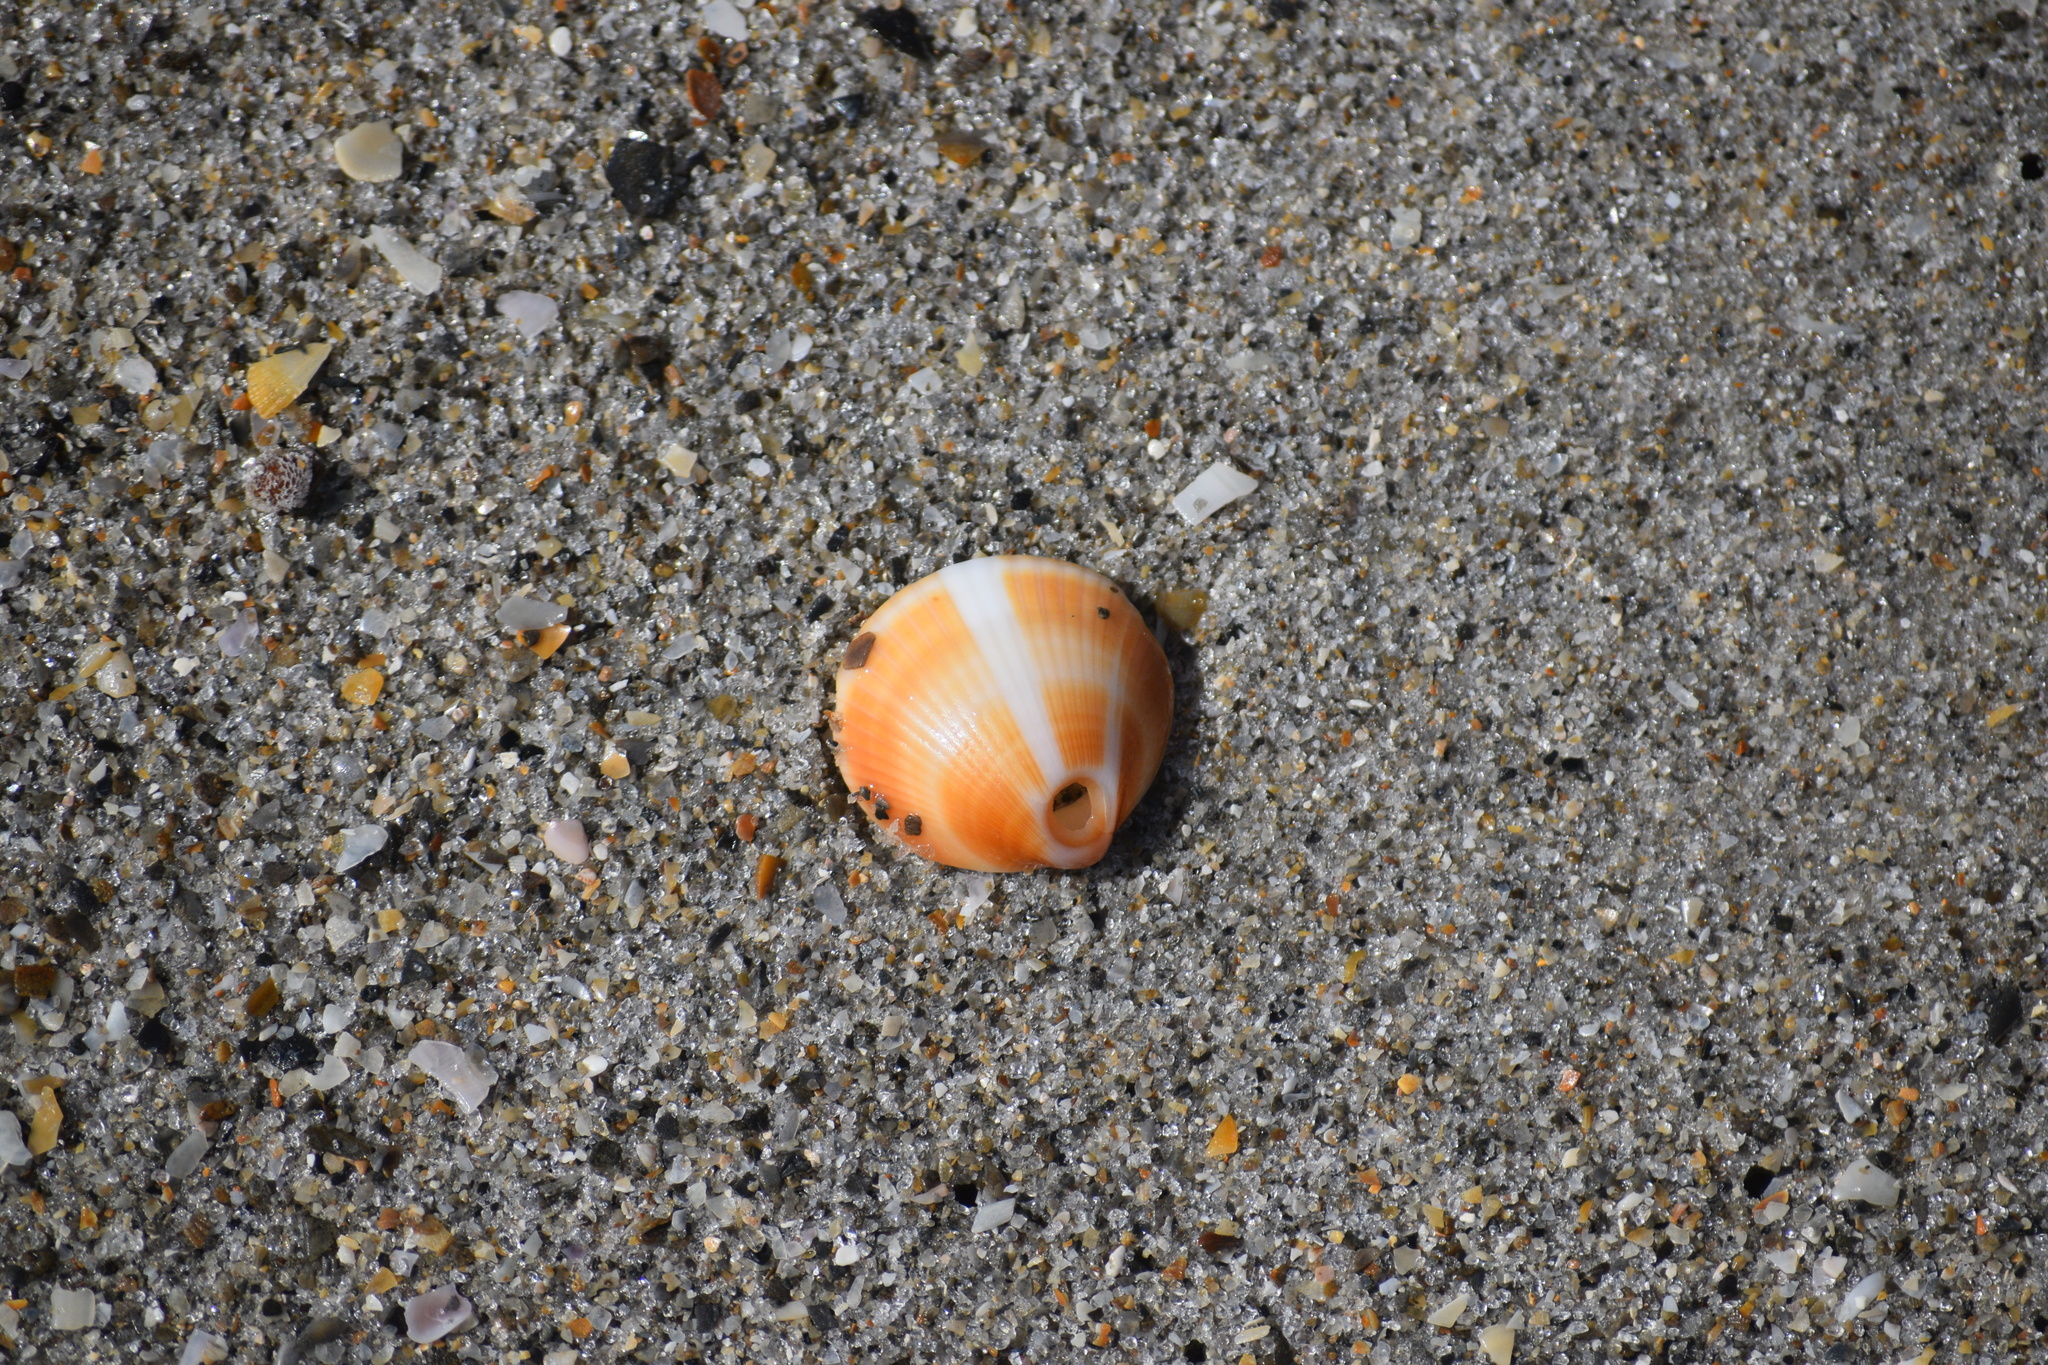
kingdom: Animalia
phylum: Mollusca
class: Bivalvia
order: Arcida
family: Glycymerididae
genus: Glycymeris
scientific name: Glycymeris spectralis
